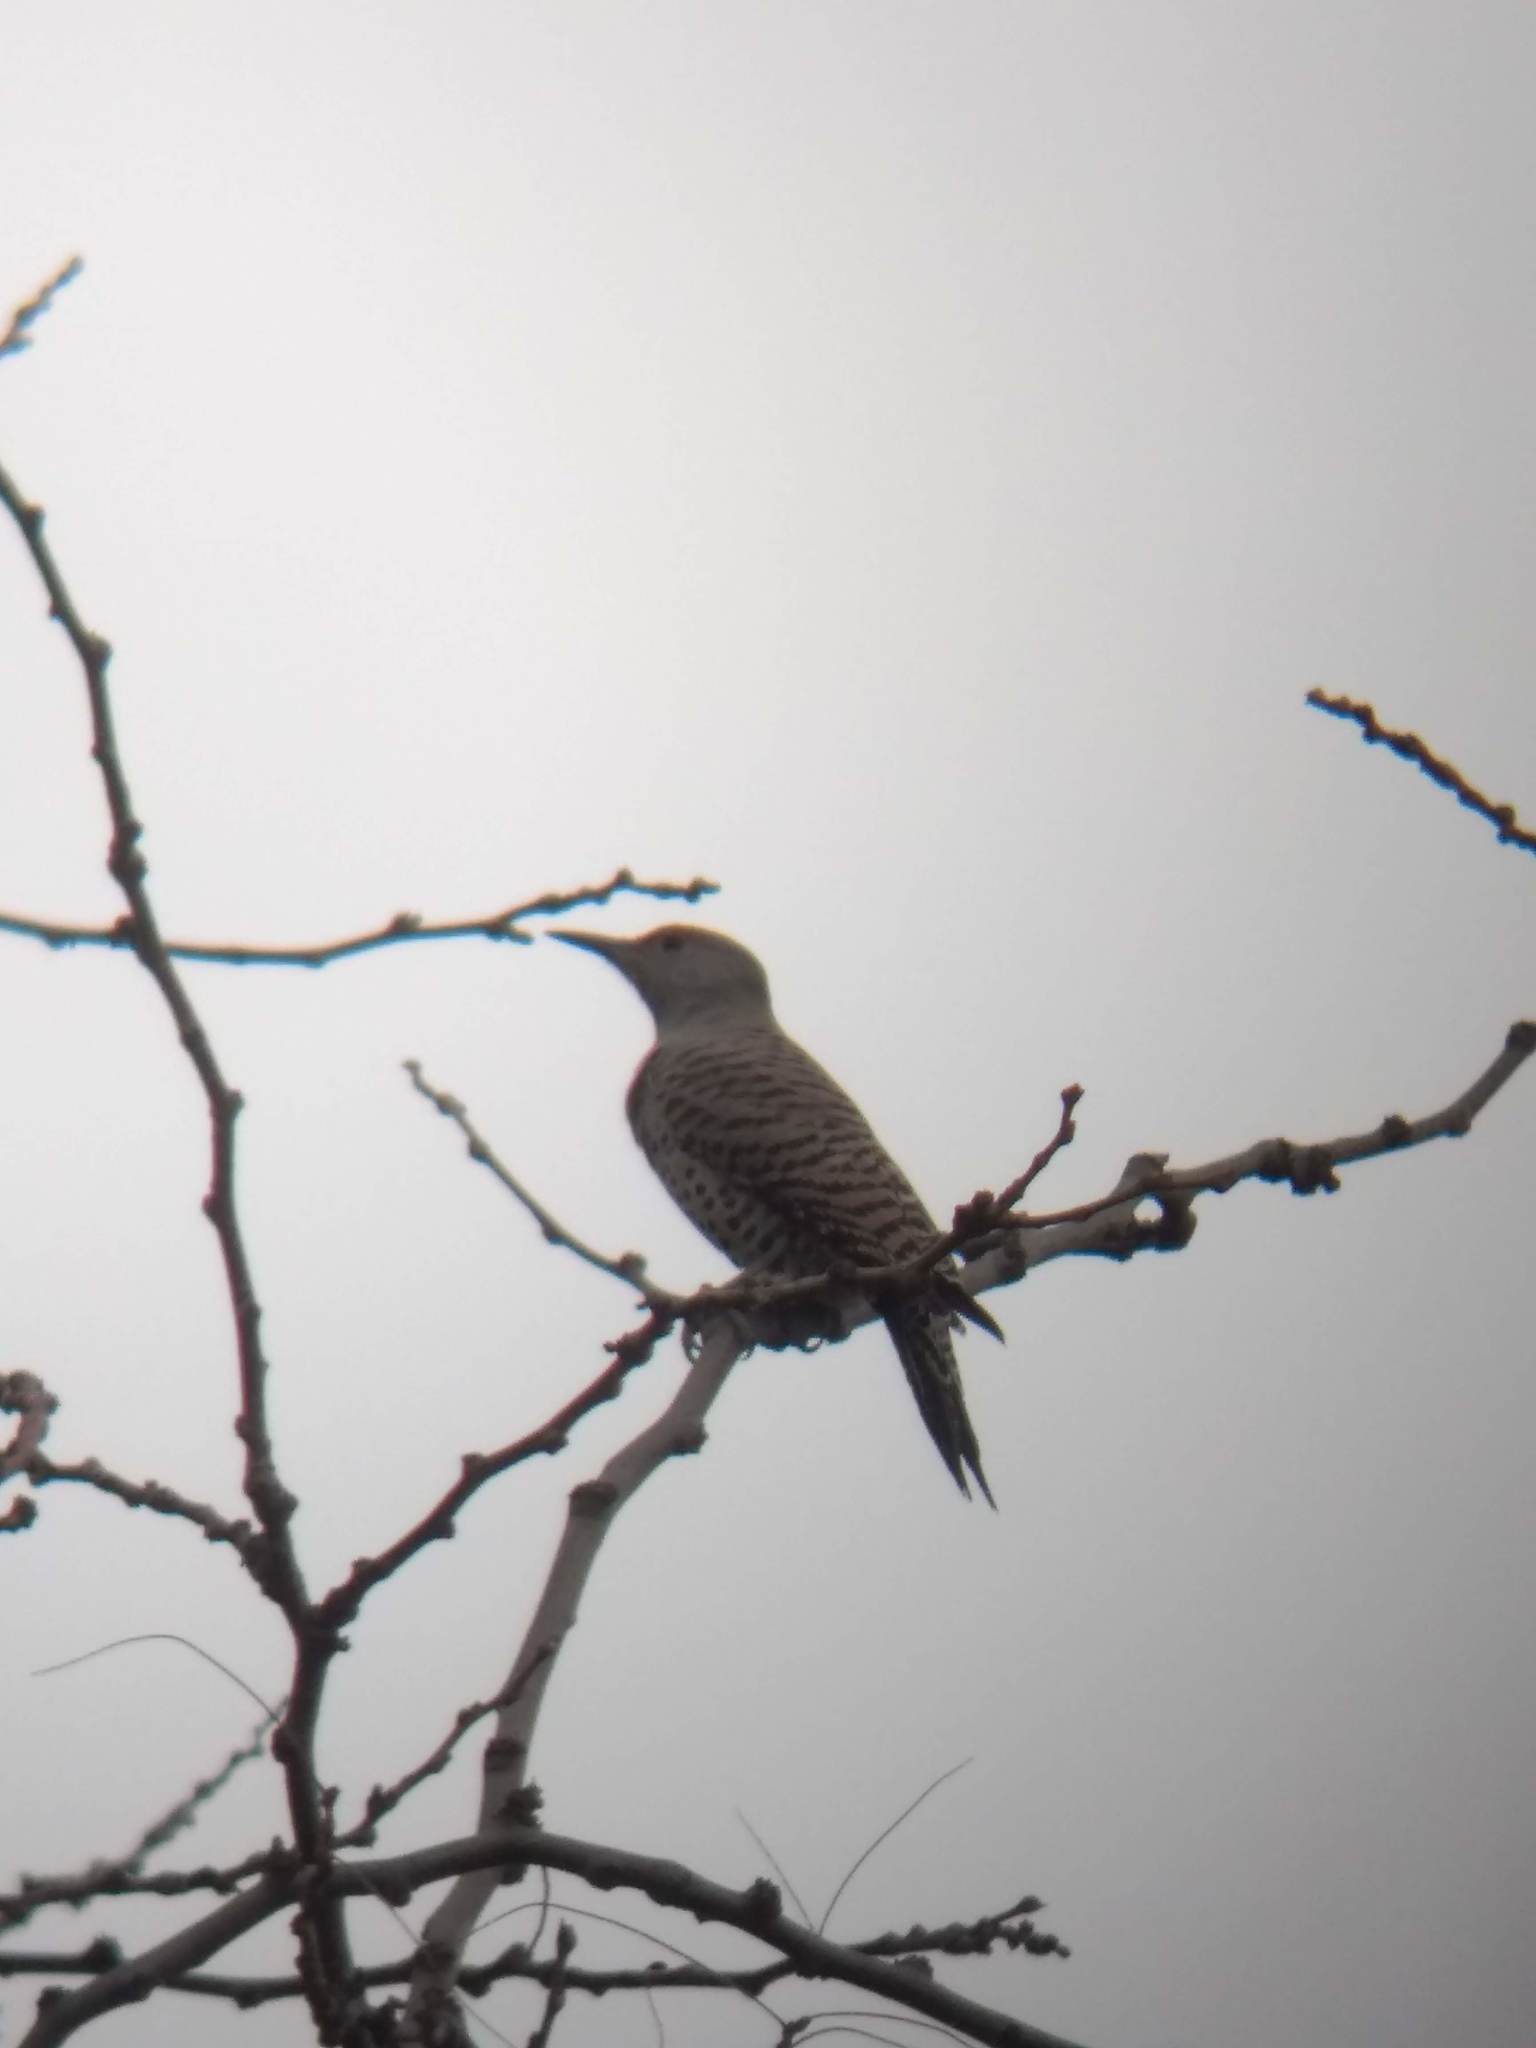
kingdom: Animalia
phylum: Chordata
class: Aves
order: Piciformes
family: Picidae
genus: Colaptes
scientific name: Colaptes auratus
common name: Northern flicker
